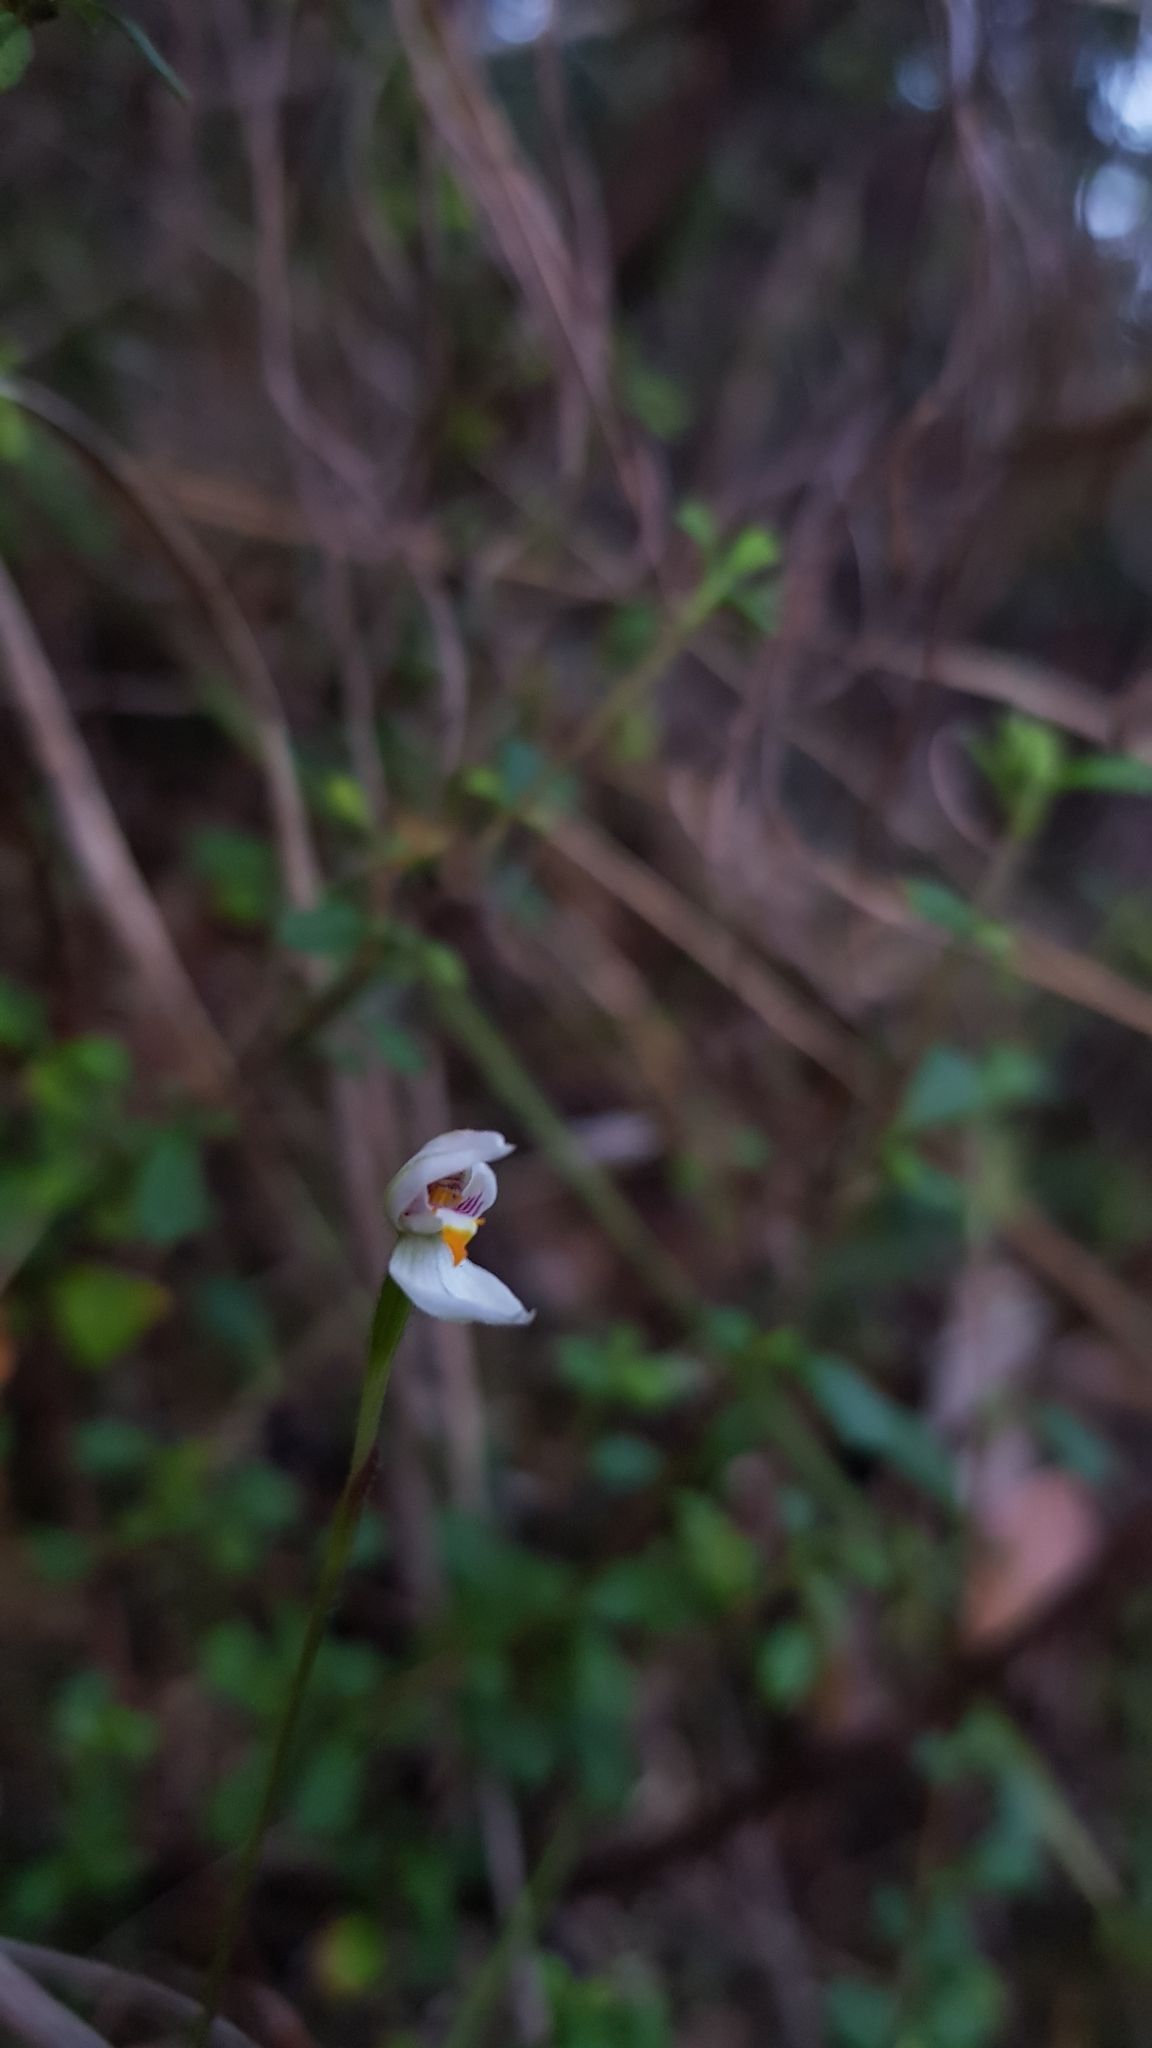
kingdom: Plantae
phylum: Tracheophyta
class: Liliopsida
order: Asparagales
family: Orchidaceae
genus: Caladenia
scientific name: Caladenia alata
